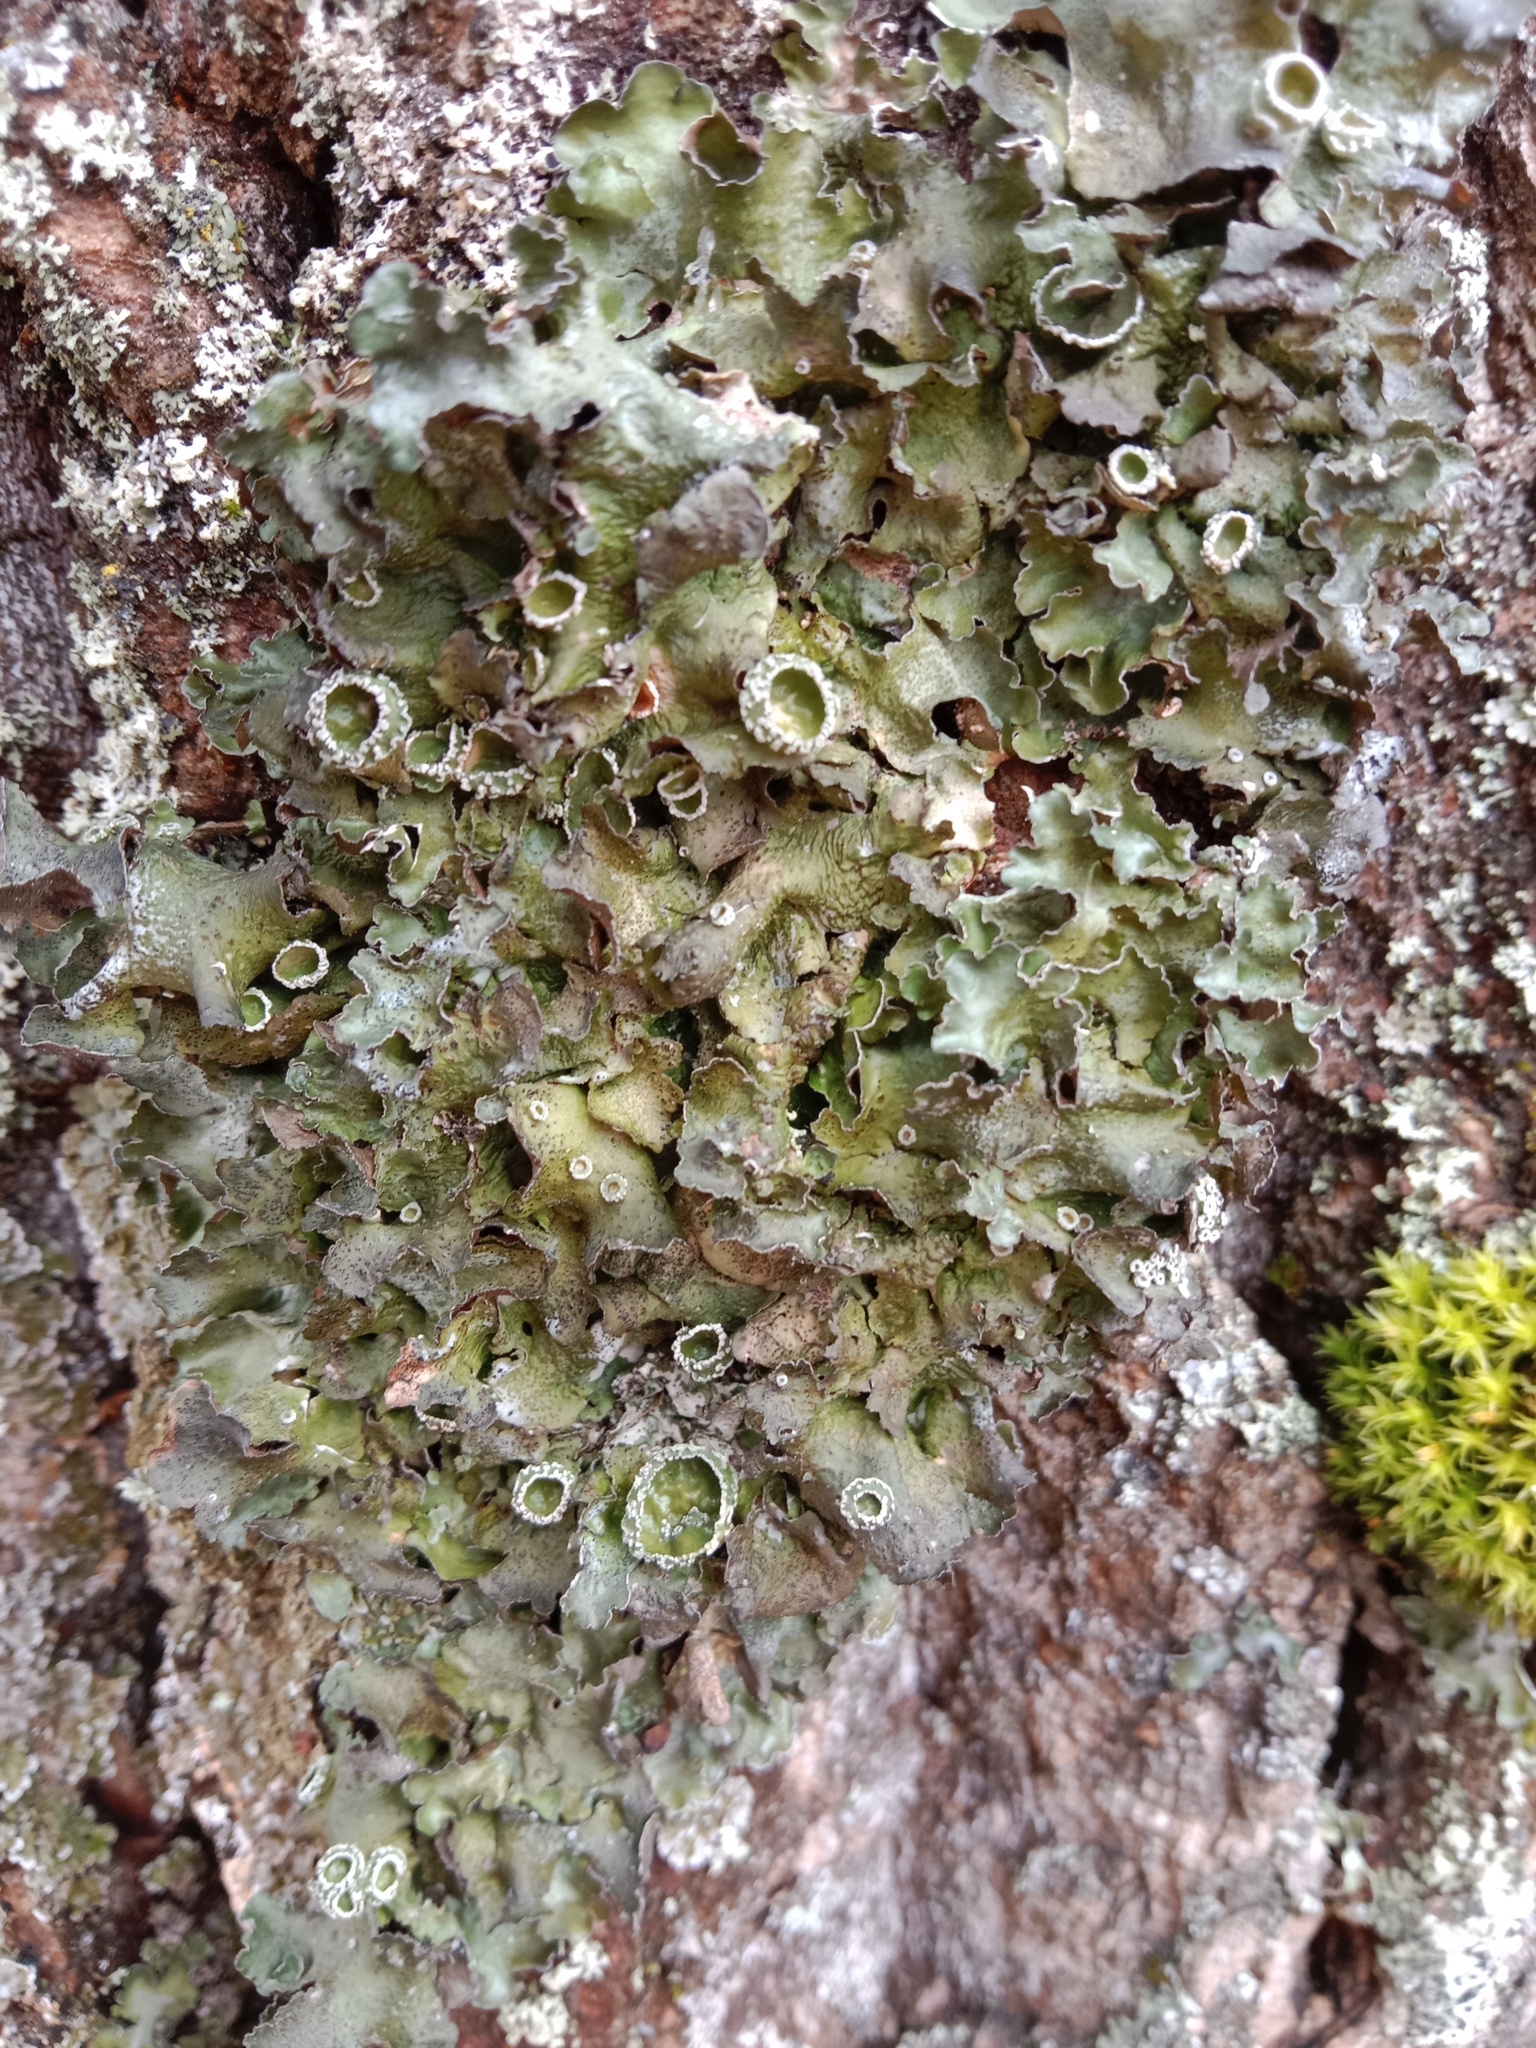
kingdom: Fungi
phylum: Ascomycota
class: Lecanoromycetes
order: Lecanorales
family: Parmeliaceae
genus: Pleurosticta
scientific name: Pleurosticta acetabulum
